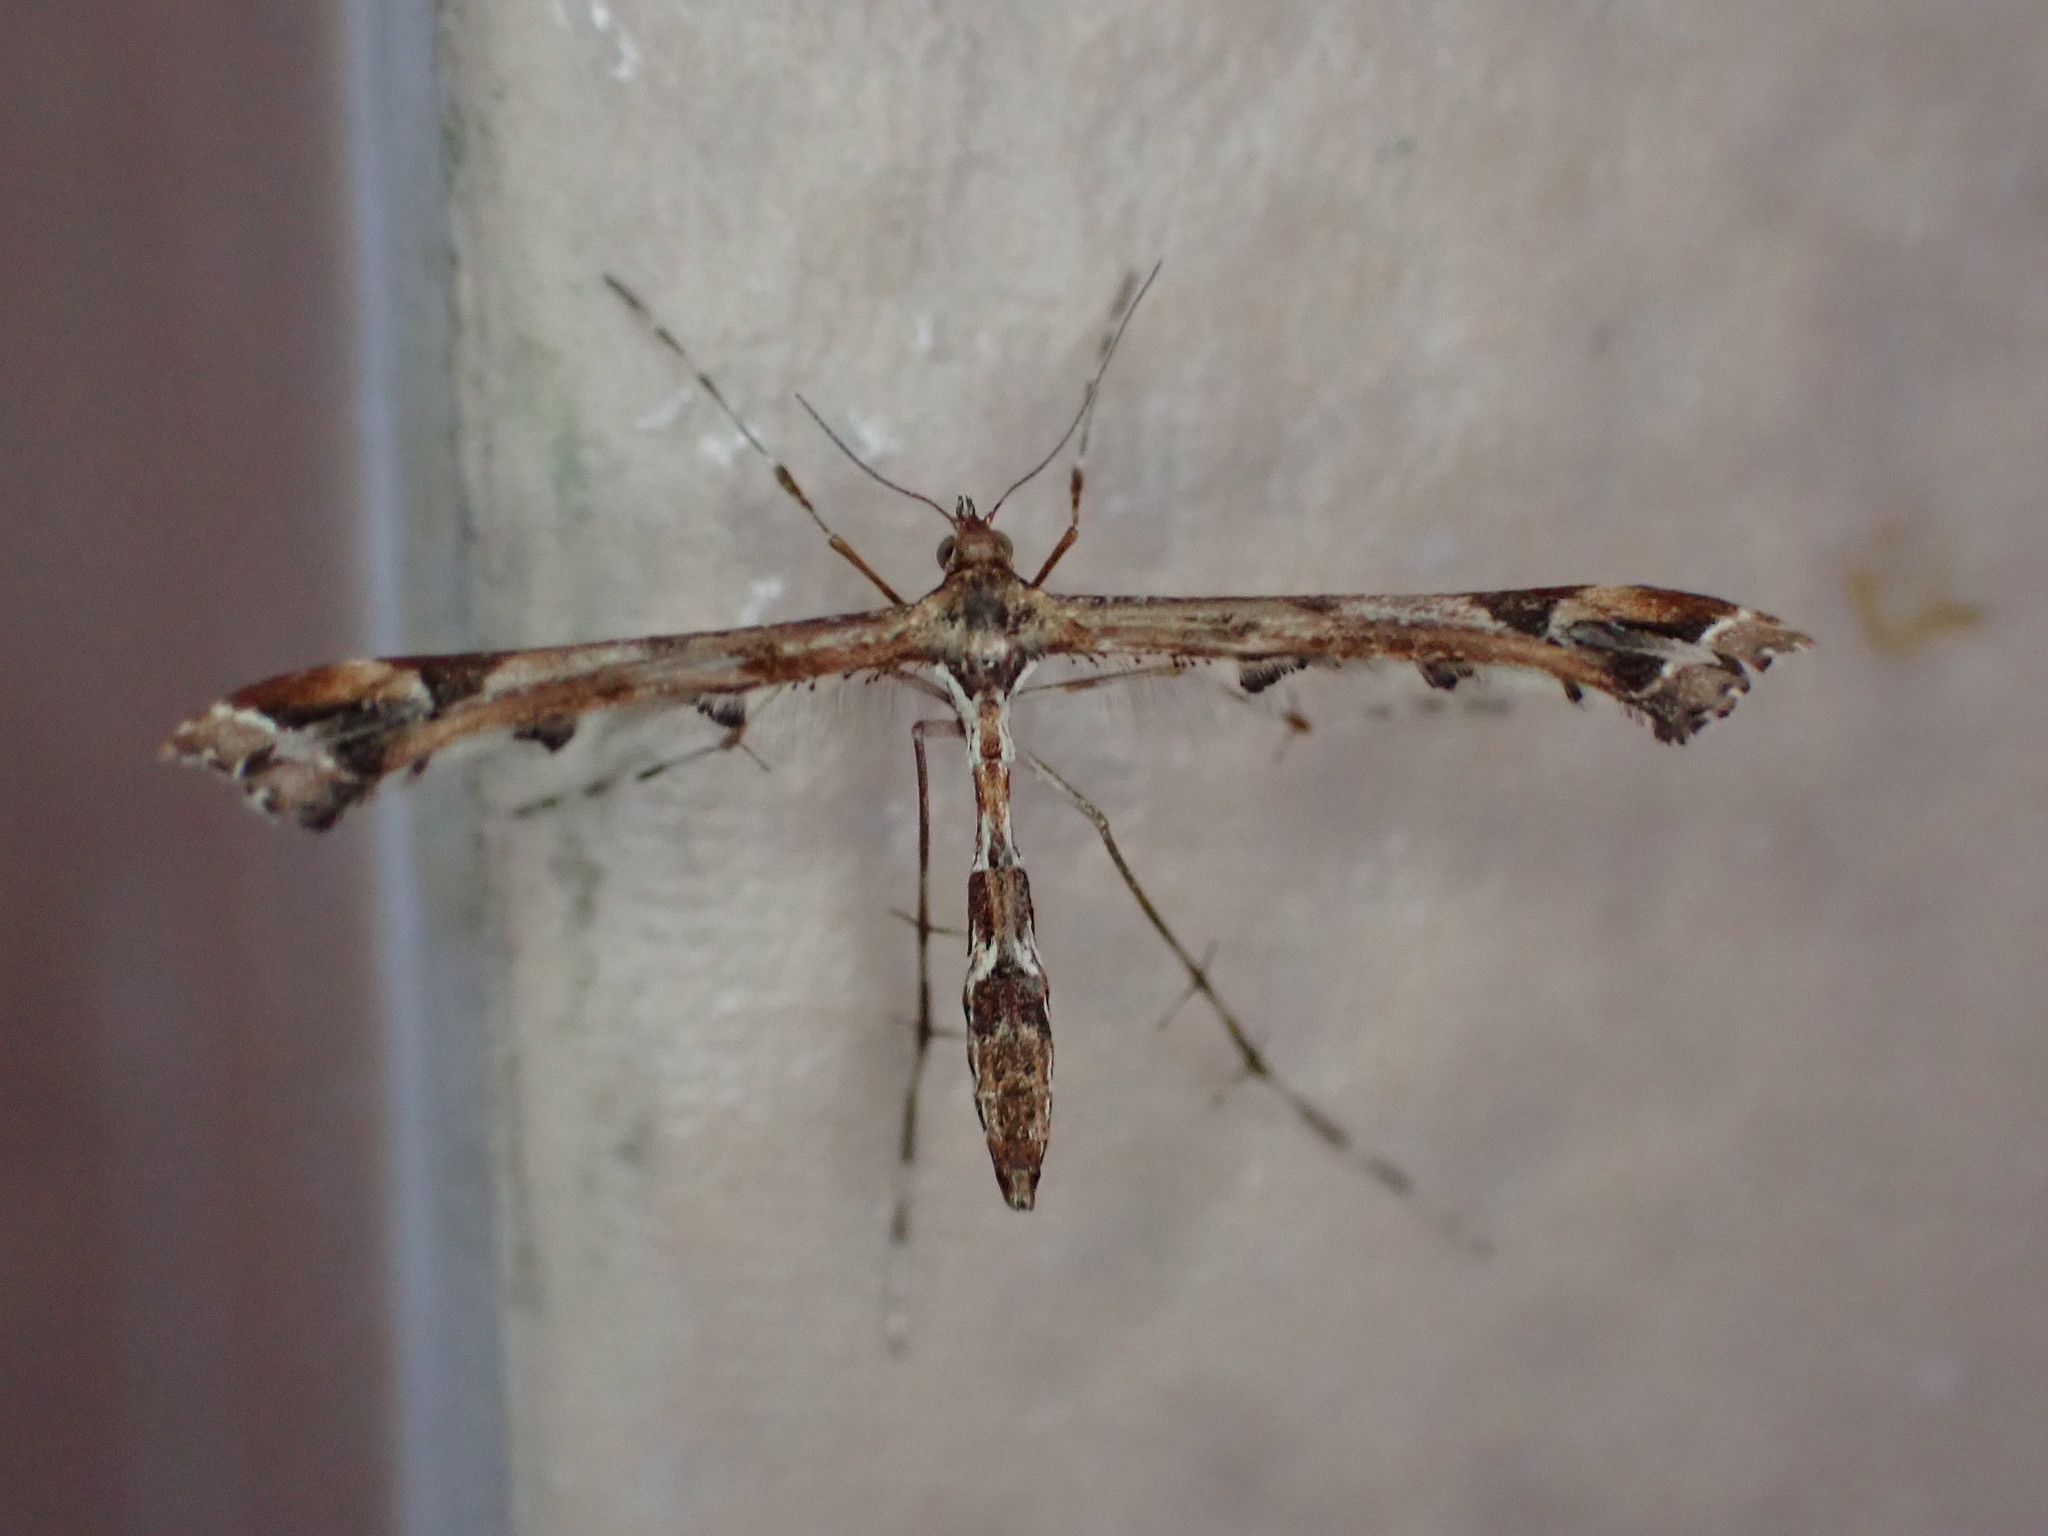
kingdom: Animalia
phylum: Arthropoda
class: Insecta
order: Lepidoptera
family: Pterophoridae
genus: Amblyptilia
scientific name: Amblyptilia acanthadactyla
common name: Beautiful plume
